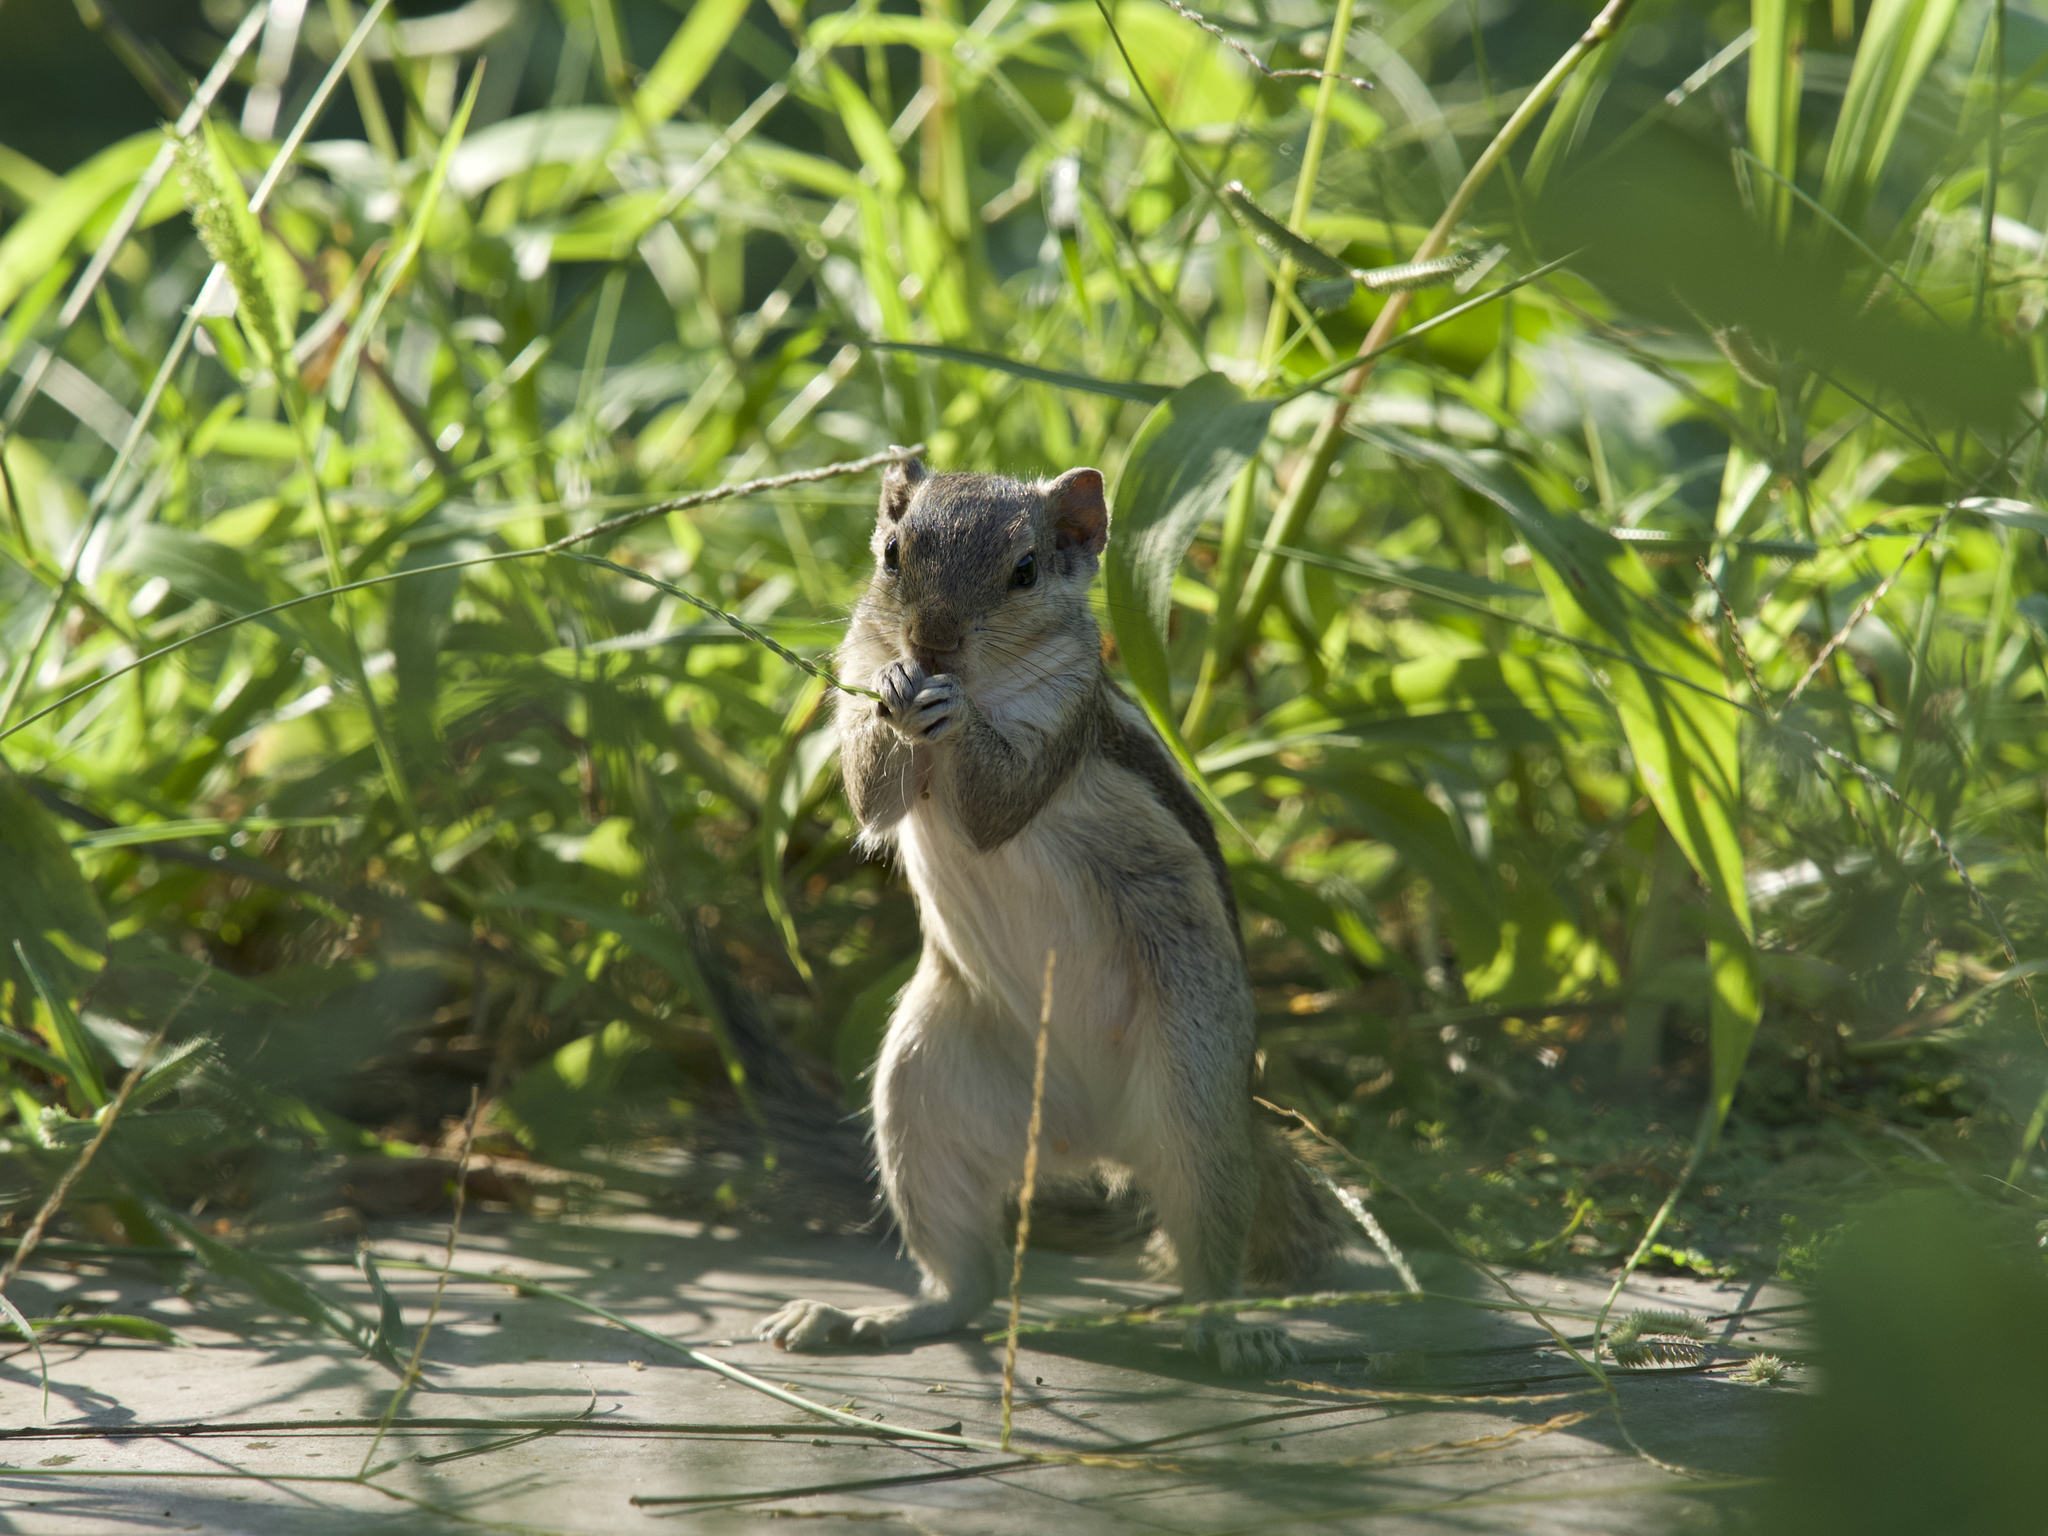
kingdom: Animalia
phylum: Chordata
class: Mammalia
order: Rodentia
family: Sciuridae
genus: Funambulus
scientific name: Funambulus pennantii
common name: Northern palm squirrel
